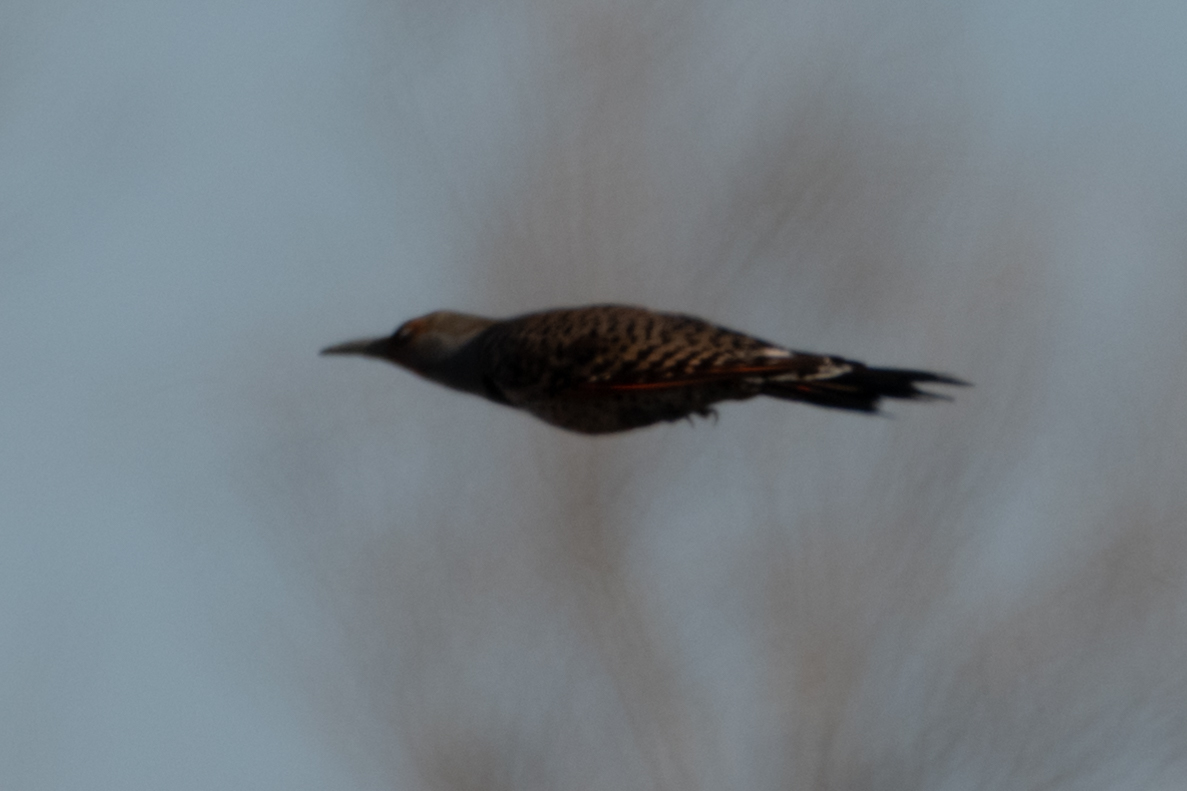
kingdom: Animalia
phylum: Chordata
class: Aves
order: Piciformes
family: Picidae
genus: Colaptes
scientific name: Colaptes auratus
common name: Northern flicker
